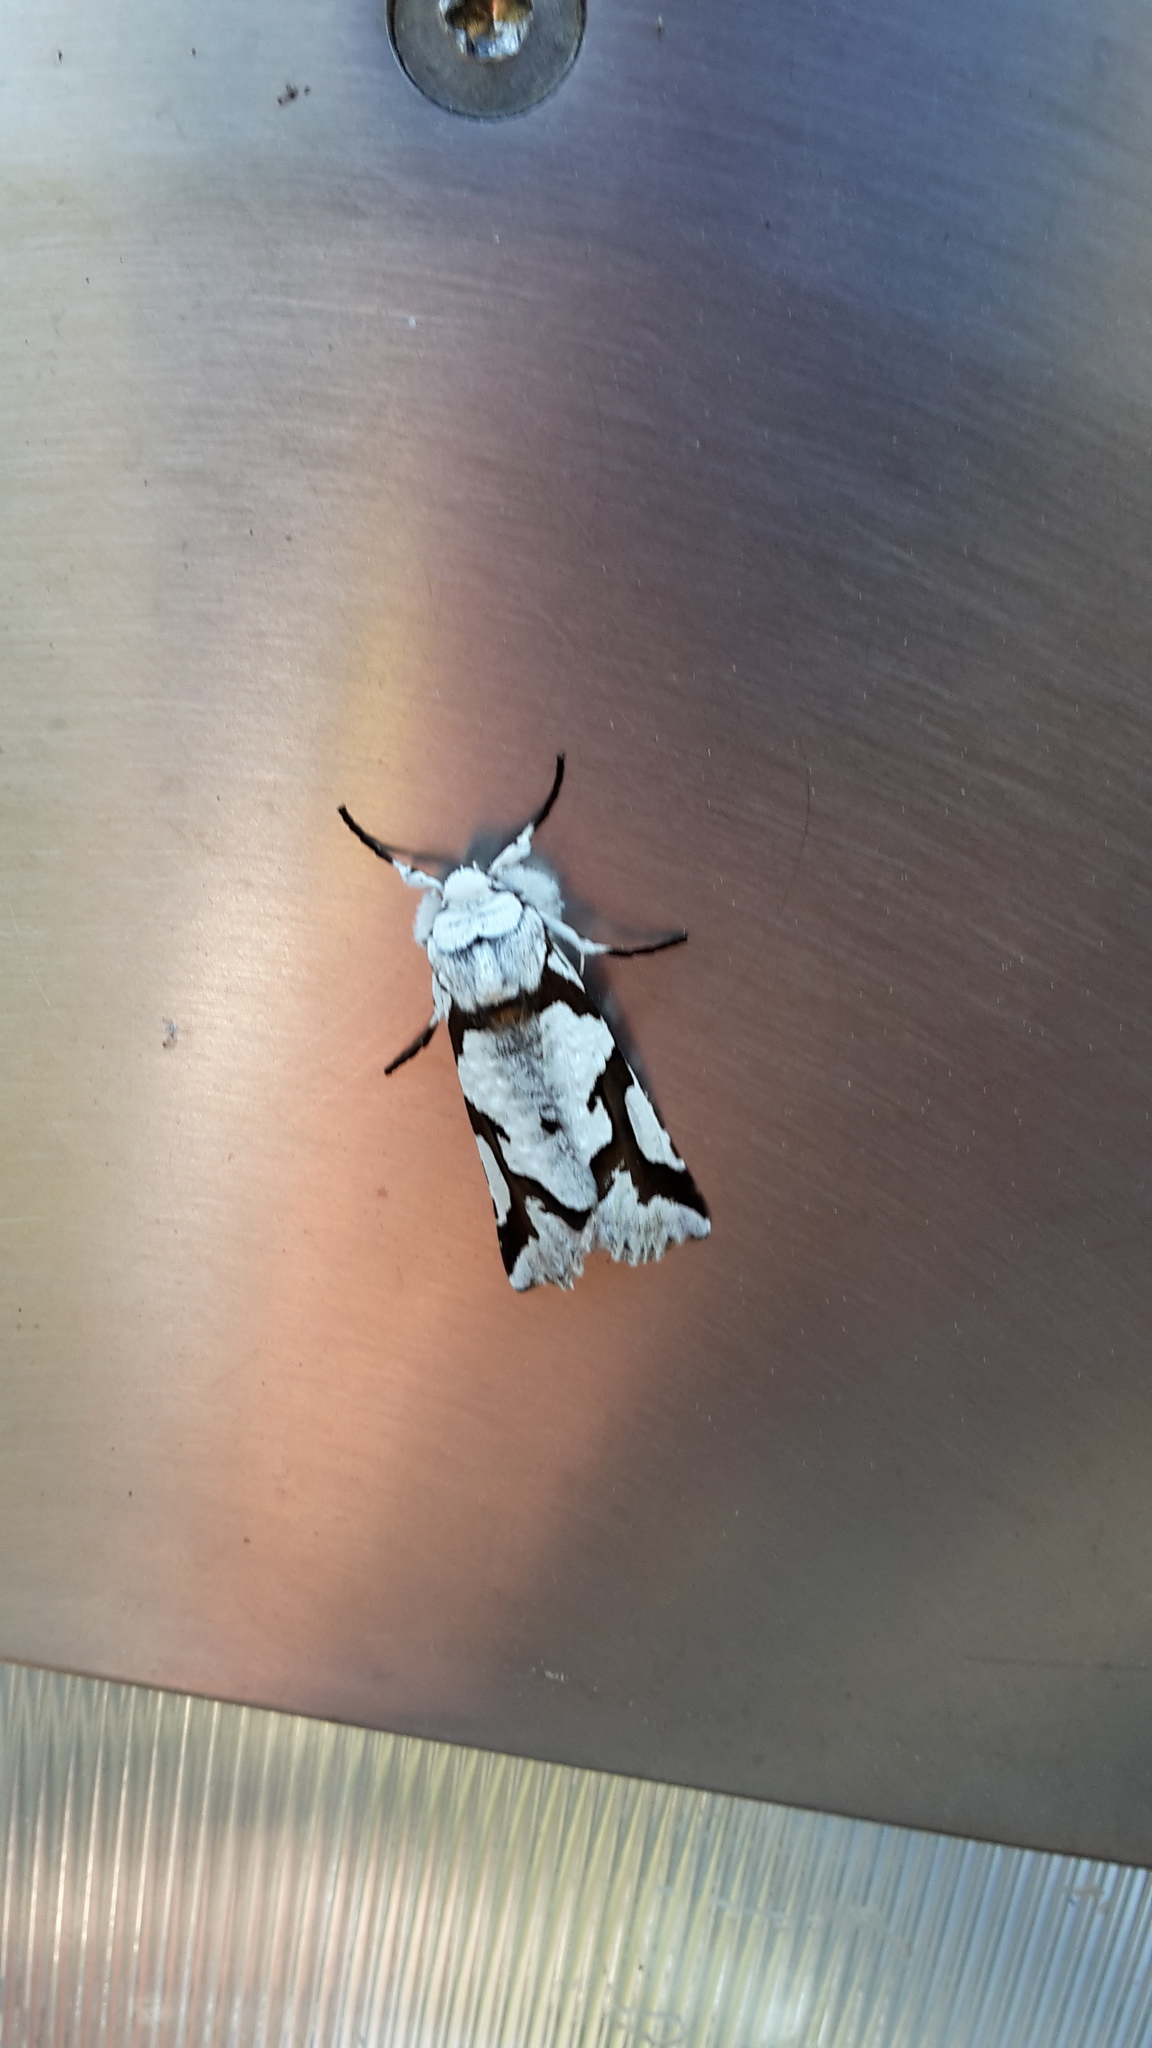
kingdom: Animalia
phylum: Arthropoda
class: Insecta
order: Lepidoptera
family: Geometridae
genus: Declana
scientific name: Declana
